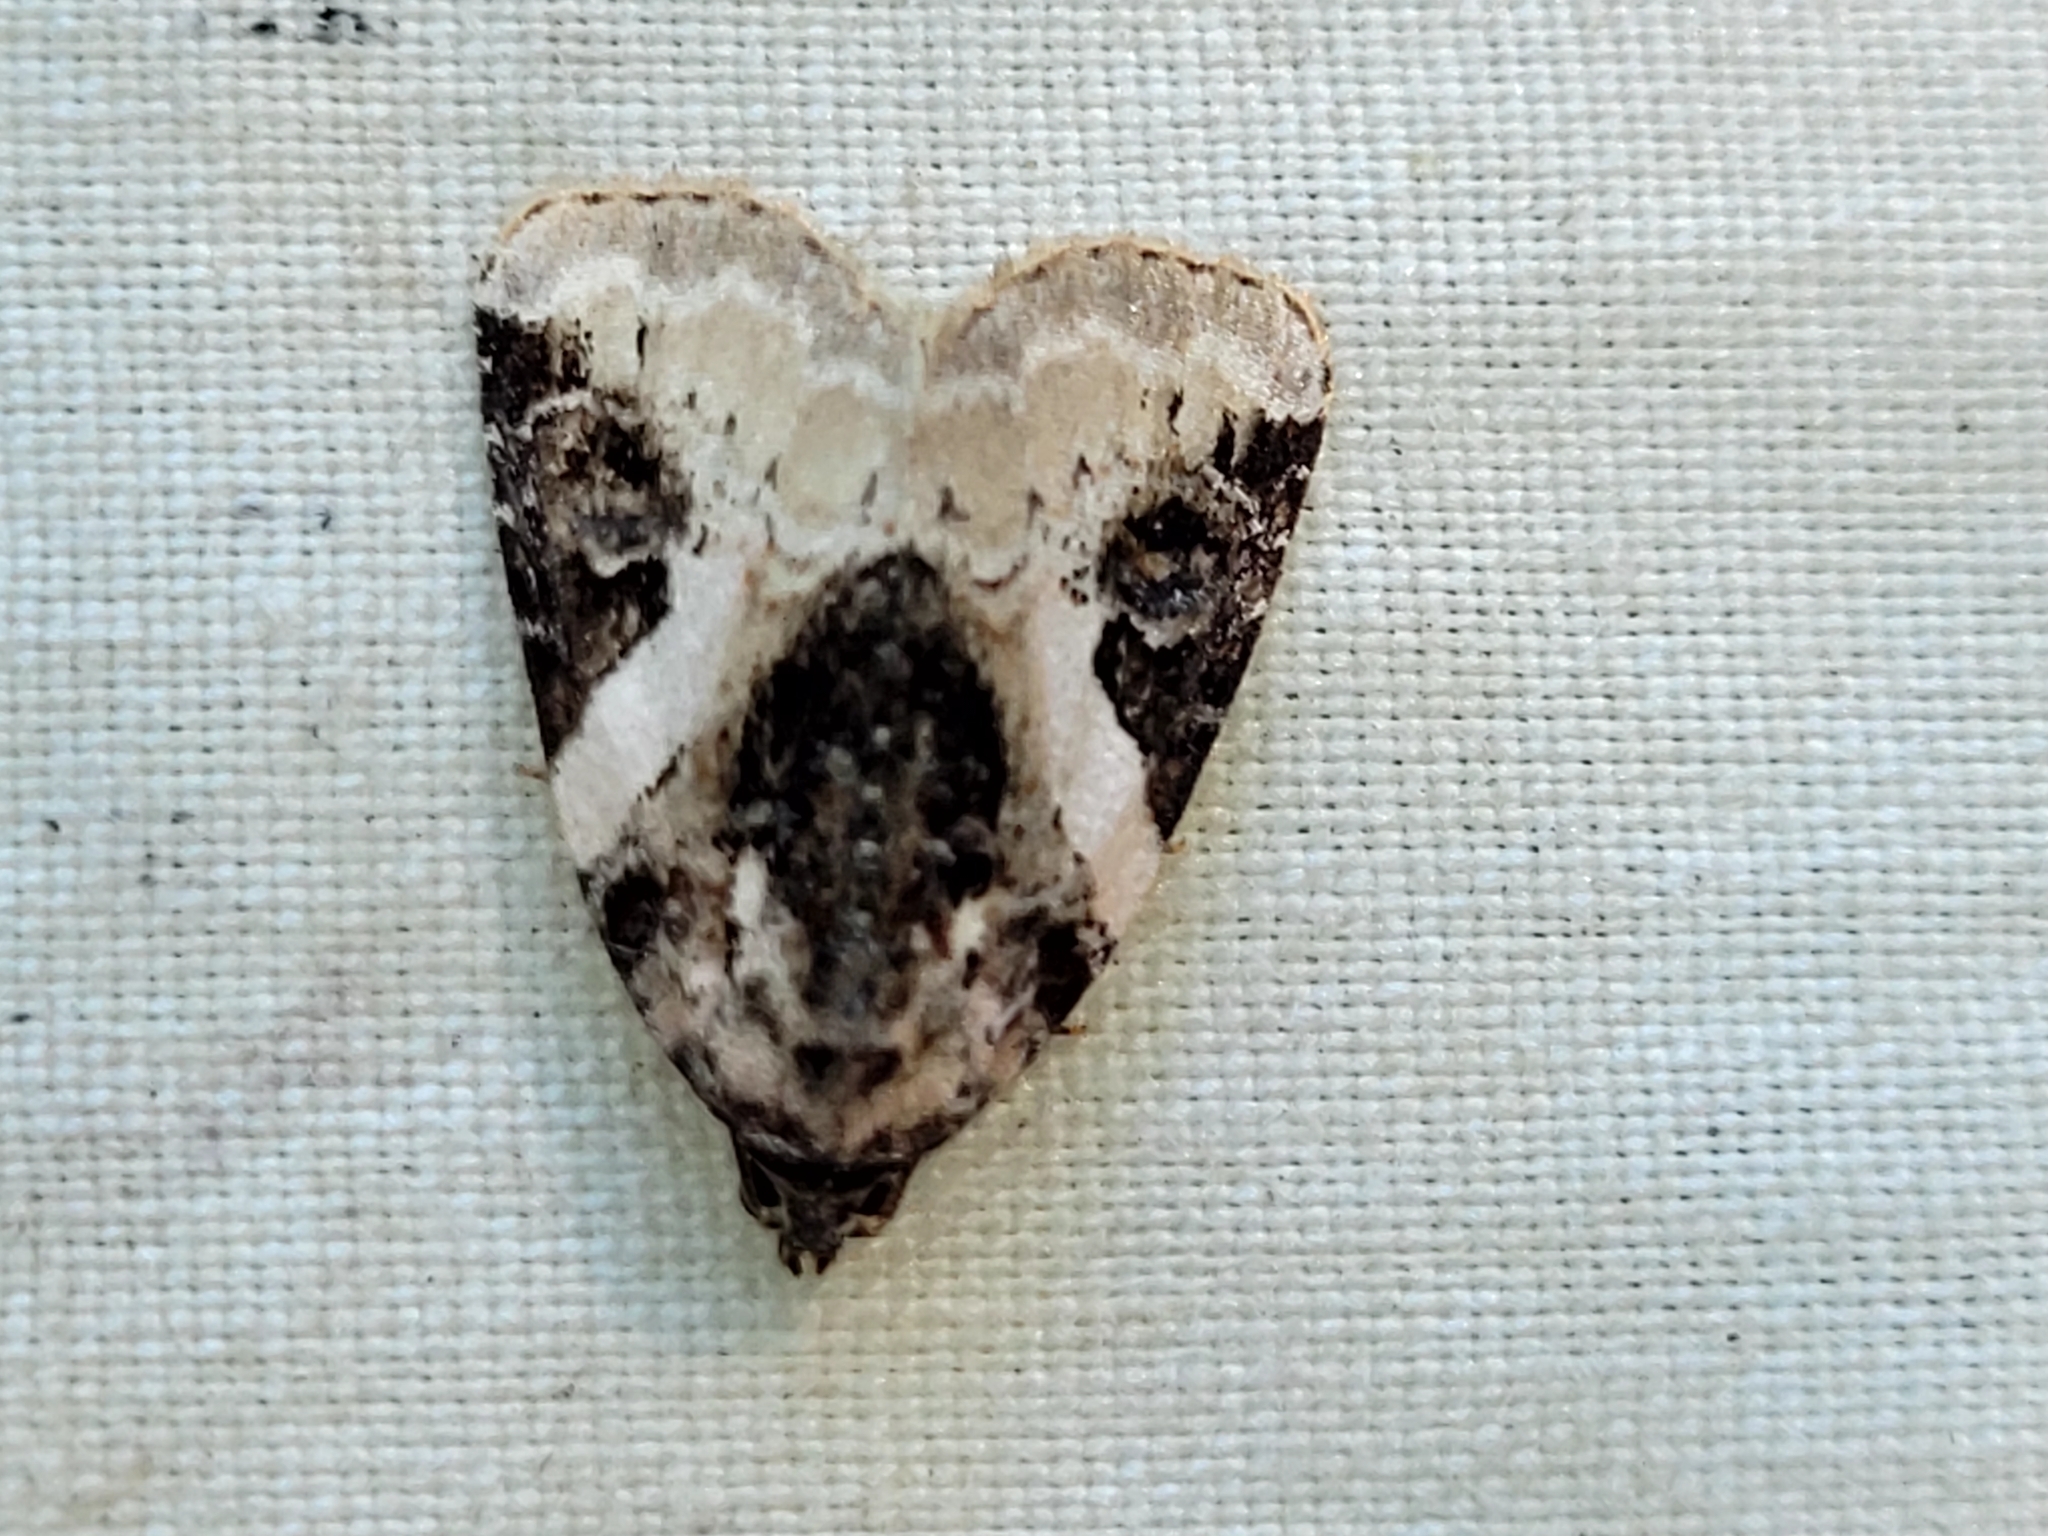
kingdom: Animalia
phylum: Arthropoda
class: Insecta
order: Lepidoptera
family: Noctuidae
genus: Pseudeustrotia
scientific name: Pseudeustrotia carneola
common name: Pink-barred lithacodia moth
